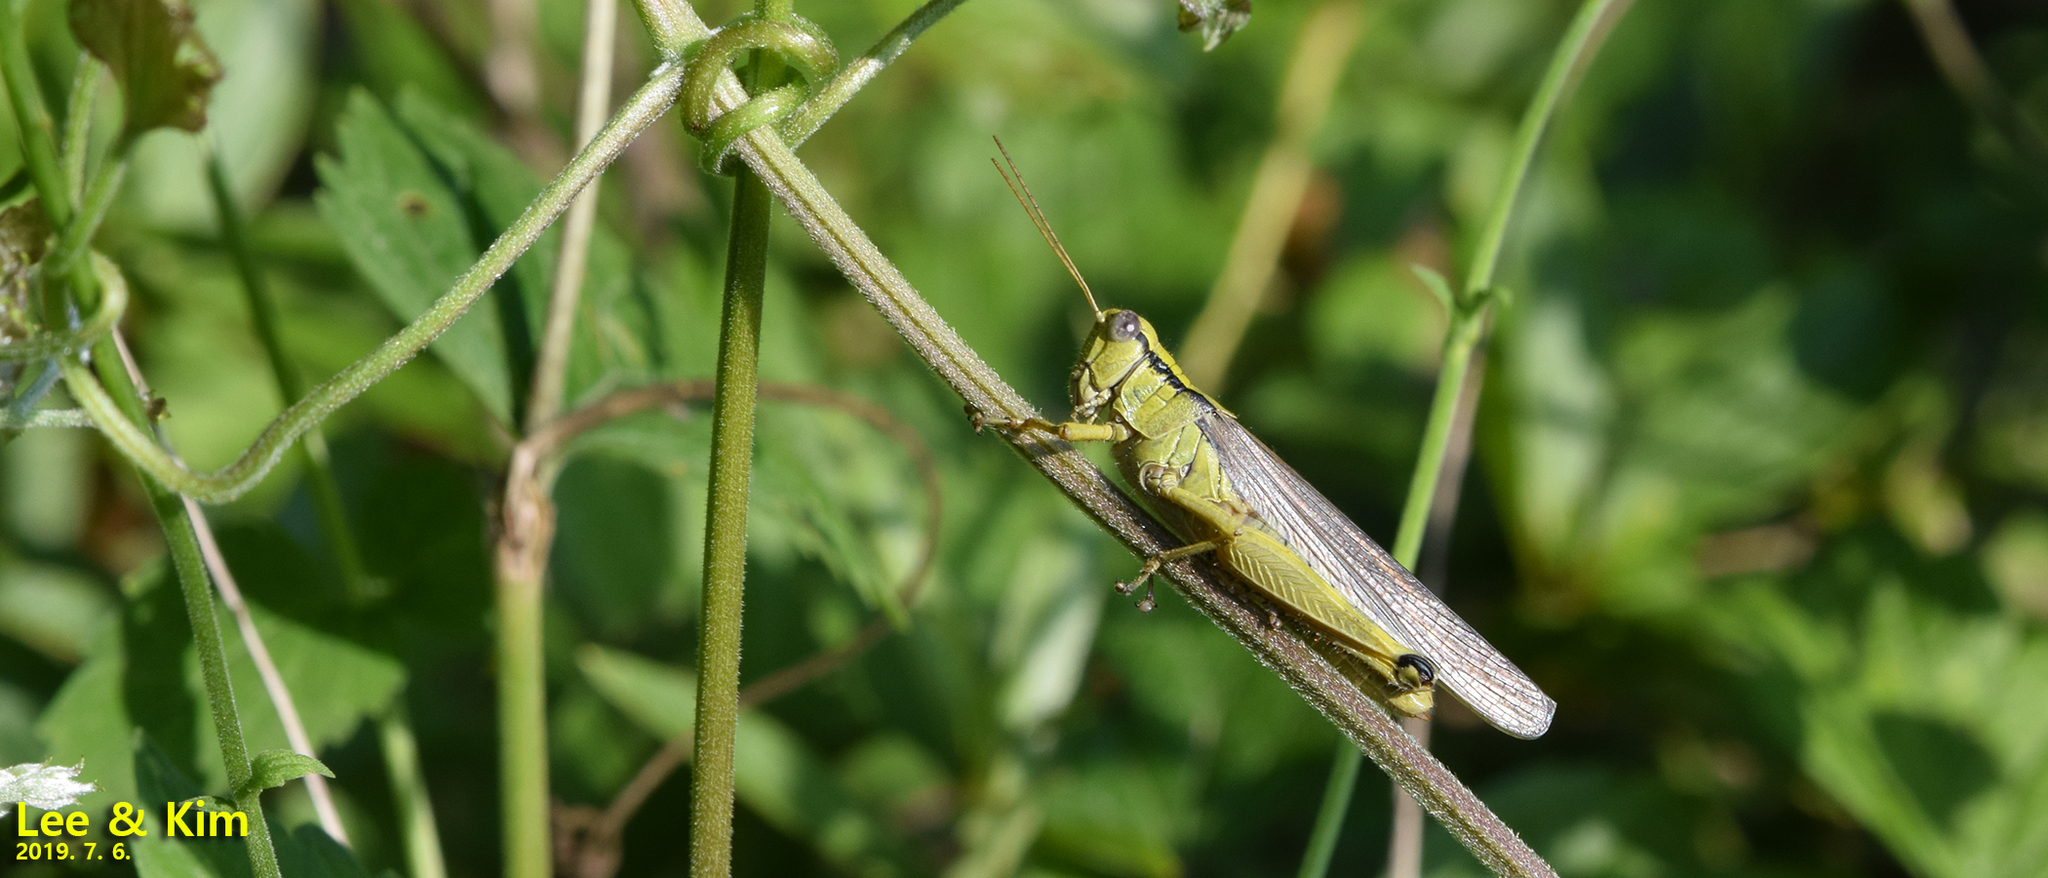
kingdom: Animalia
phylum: Arthropoda
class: Insecta
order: Orthoptera
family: Acrididae
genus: Confusacris
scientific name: Confusacris longipennis
